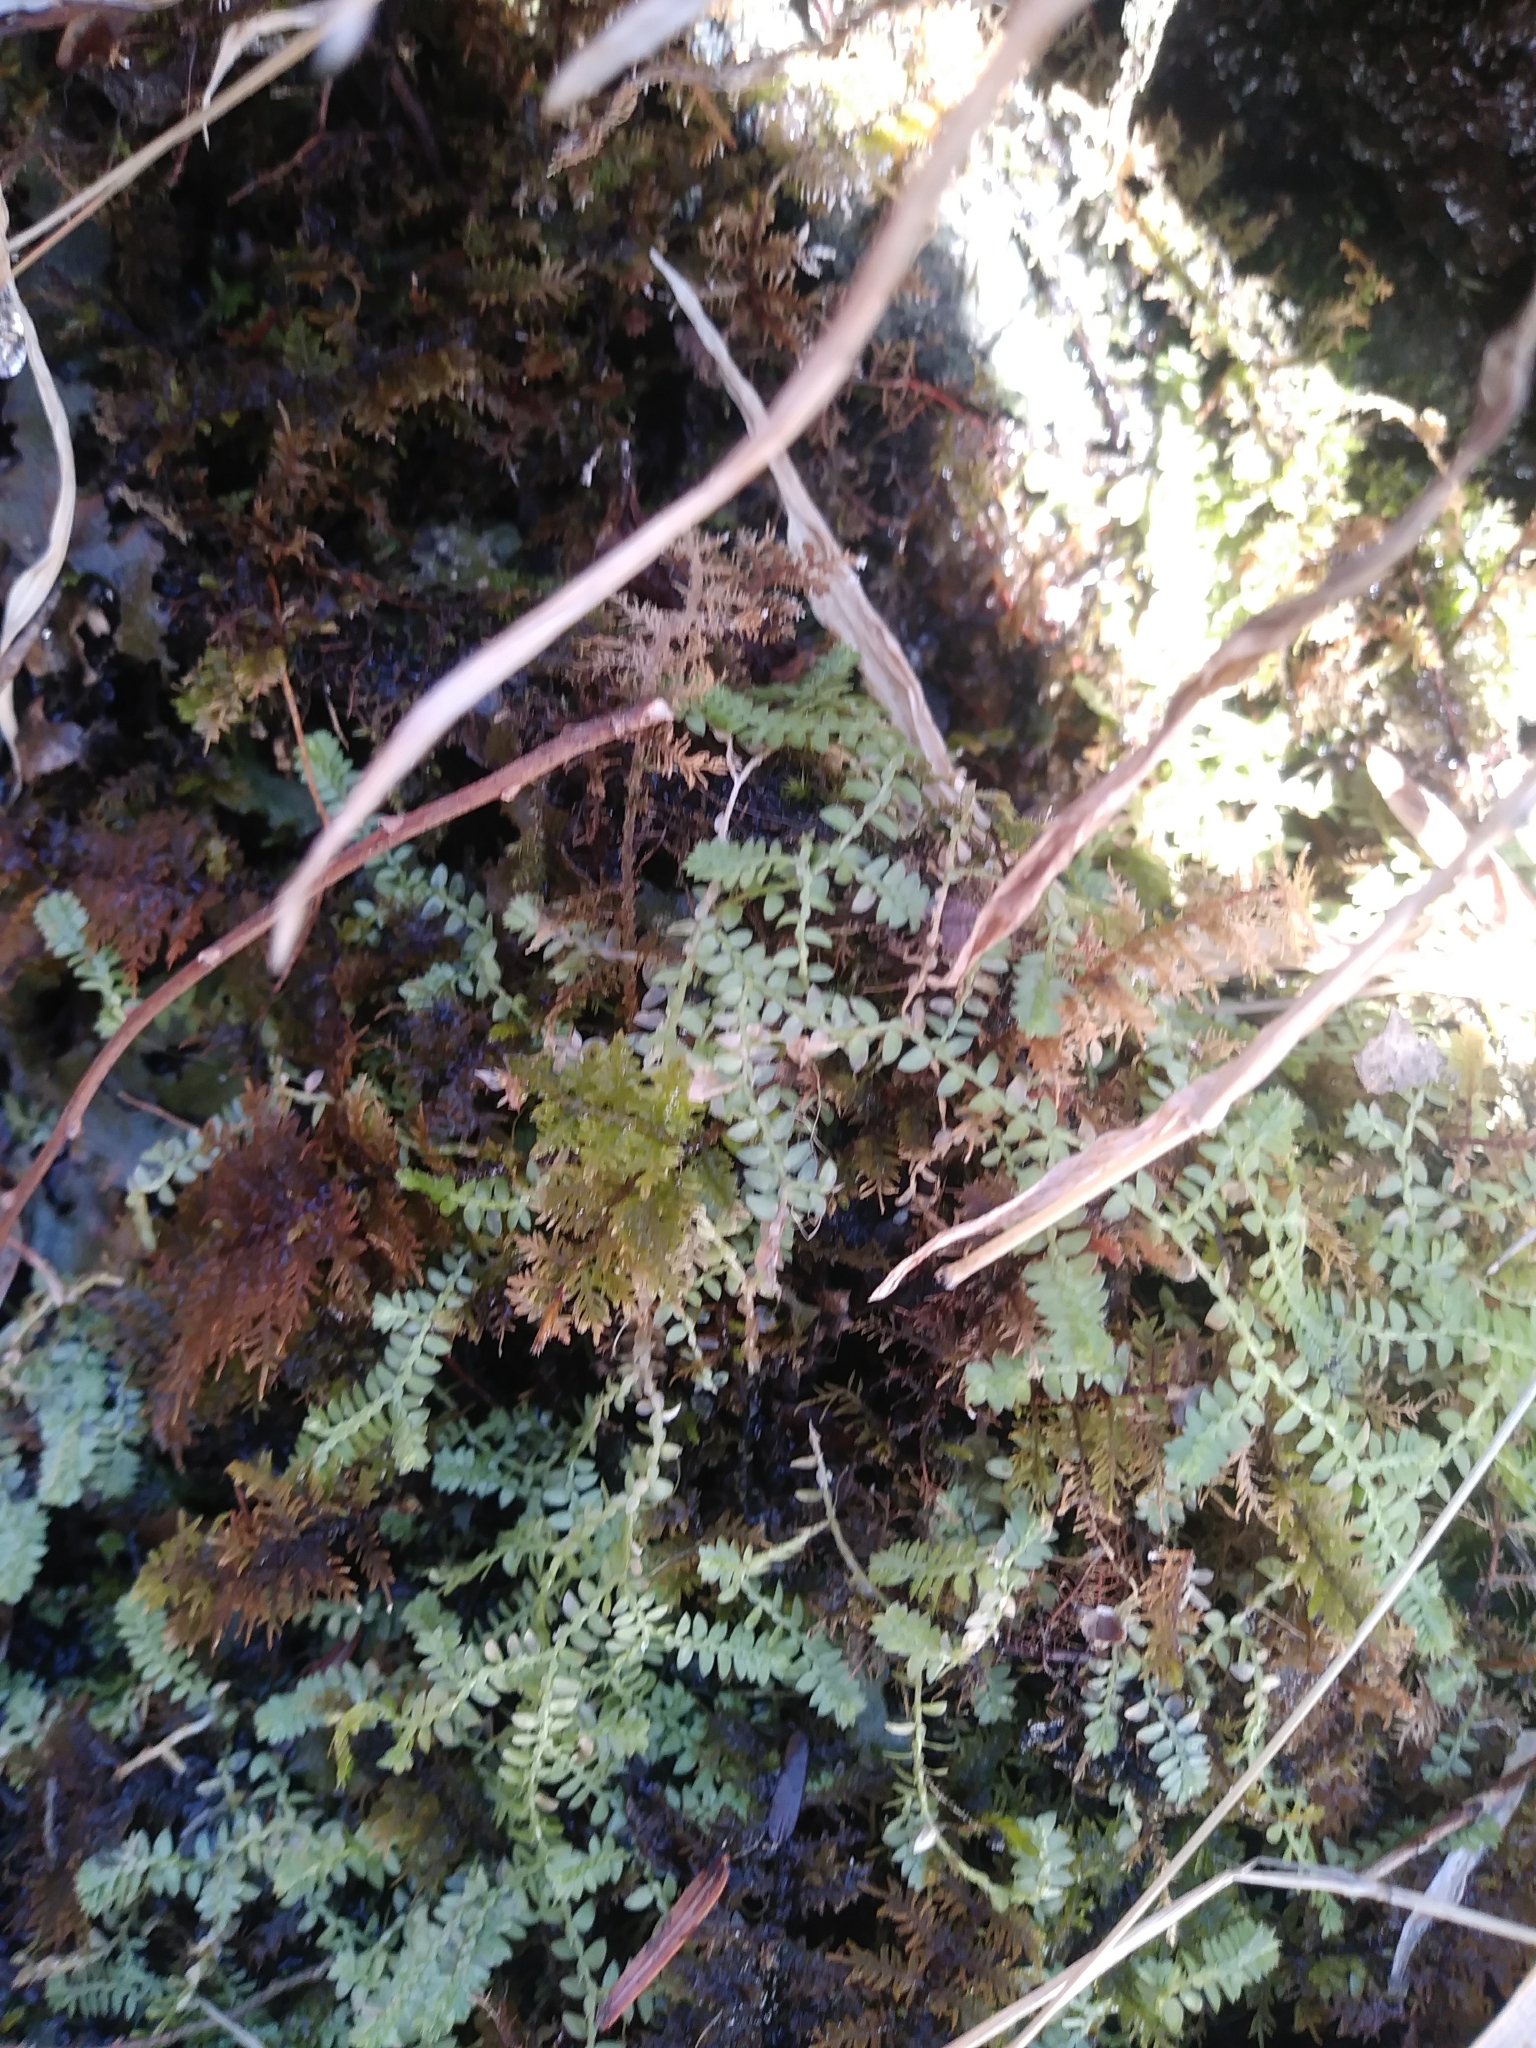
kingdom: Plantae
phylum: Tracheophyta
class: Lycopodiopsida
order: Selaginellales
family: Selaginellaceae
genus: Selaginella
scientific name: Selaginella apoda
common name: Creeping spikemoss
